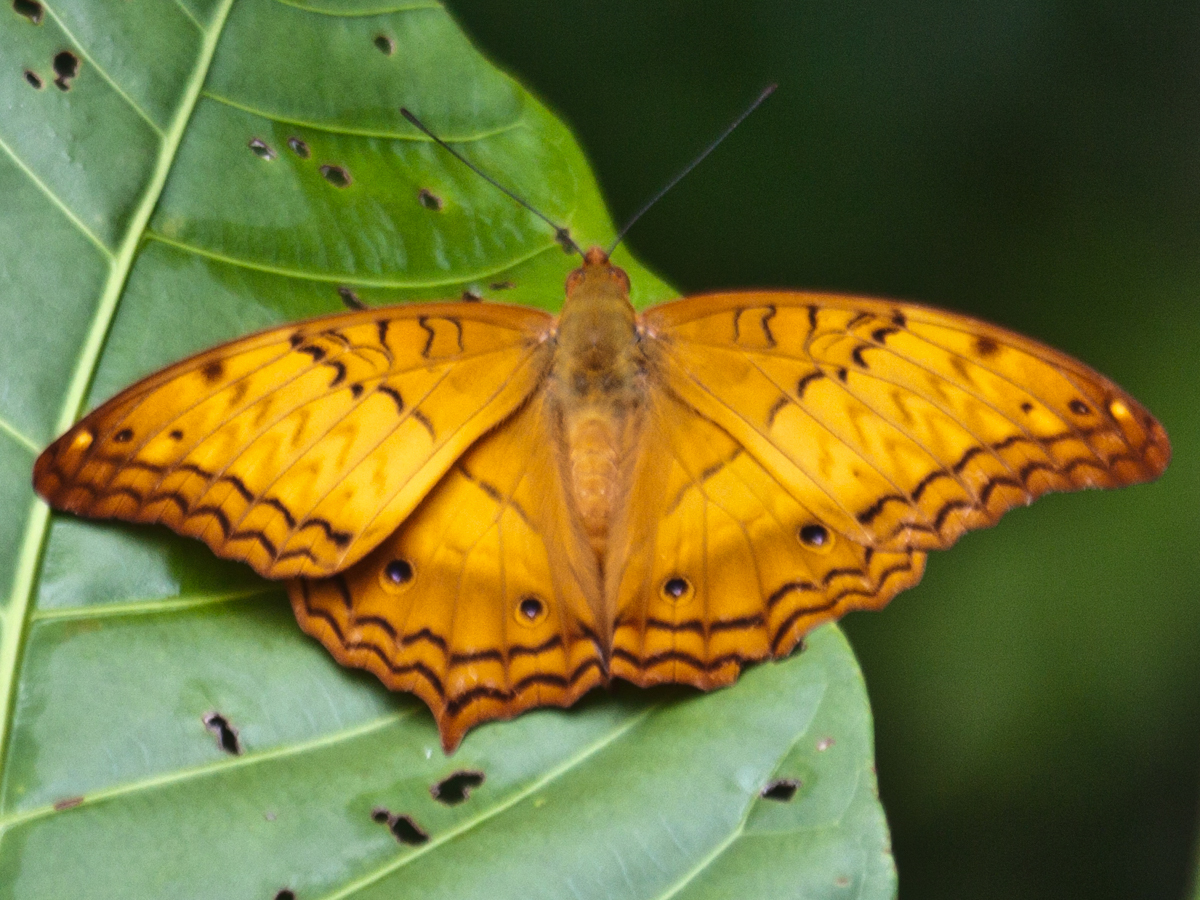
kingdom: Animalia
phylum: Arthropoda
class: Insecta
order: Lepidoptera
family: Nymphalidae
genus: Vindula
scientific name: Vindula erota
